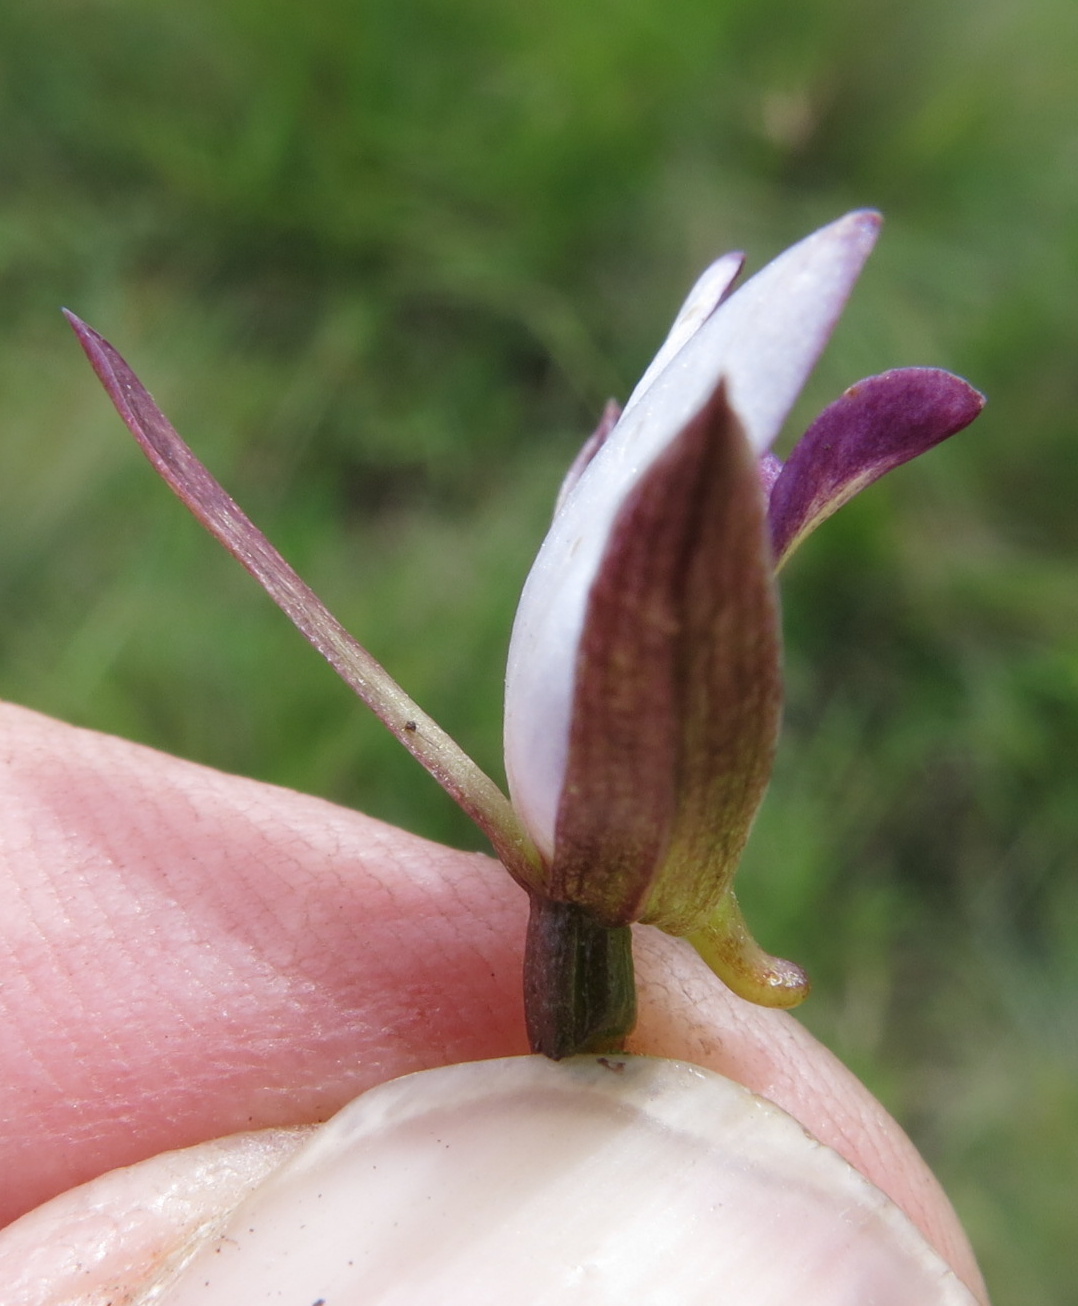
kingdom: Plantae
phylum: Tracheophyta
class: Liliopsida
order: Asparagales
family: Orchidaceae
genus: Eulophia
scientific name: Eulophia zeyheriana
